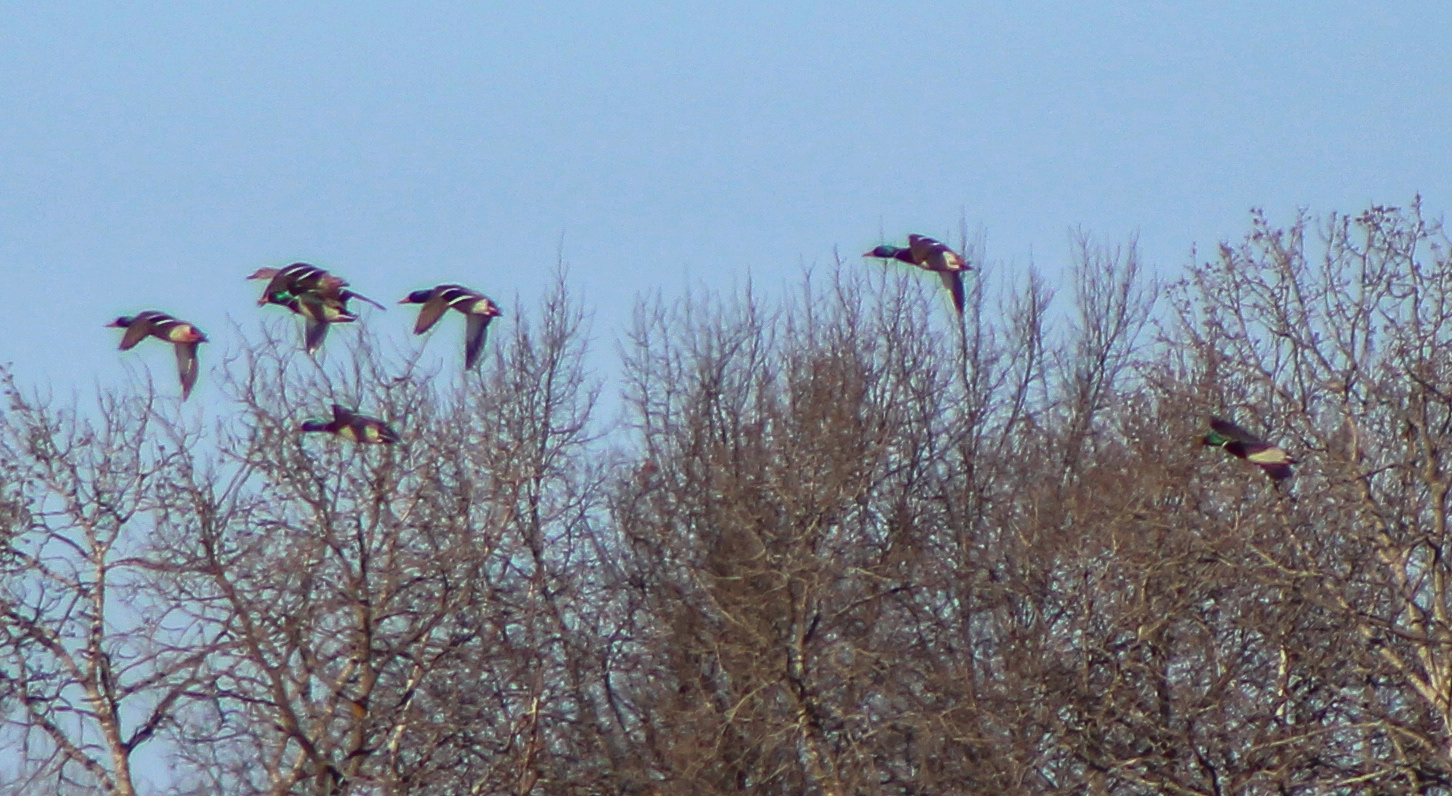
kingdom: Animalia
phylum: Chordata
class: Aves
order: Anseriformes
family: Anatidae
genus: Anas
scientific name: Anas platyrhynchos
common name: Mallard
